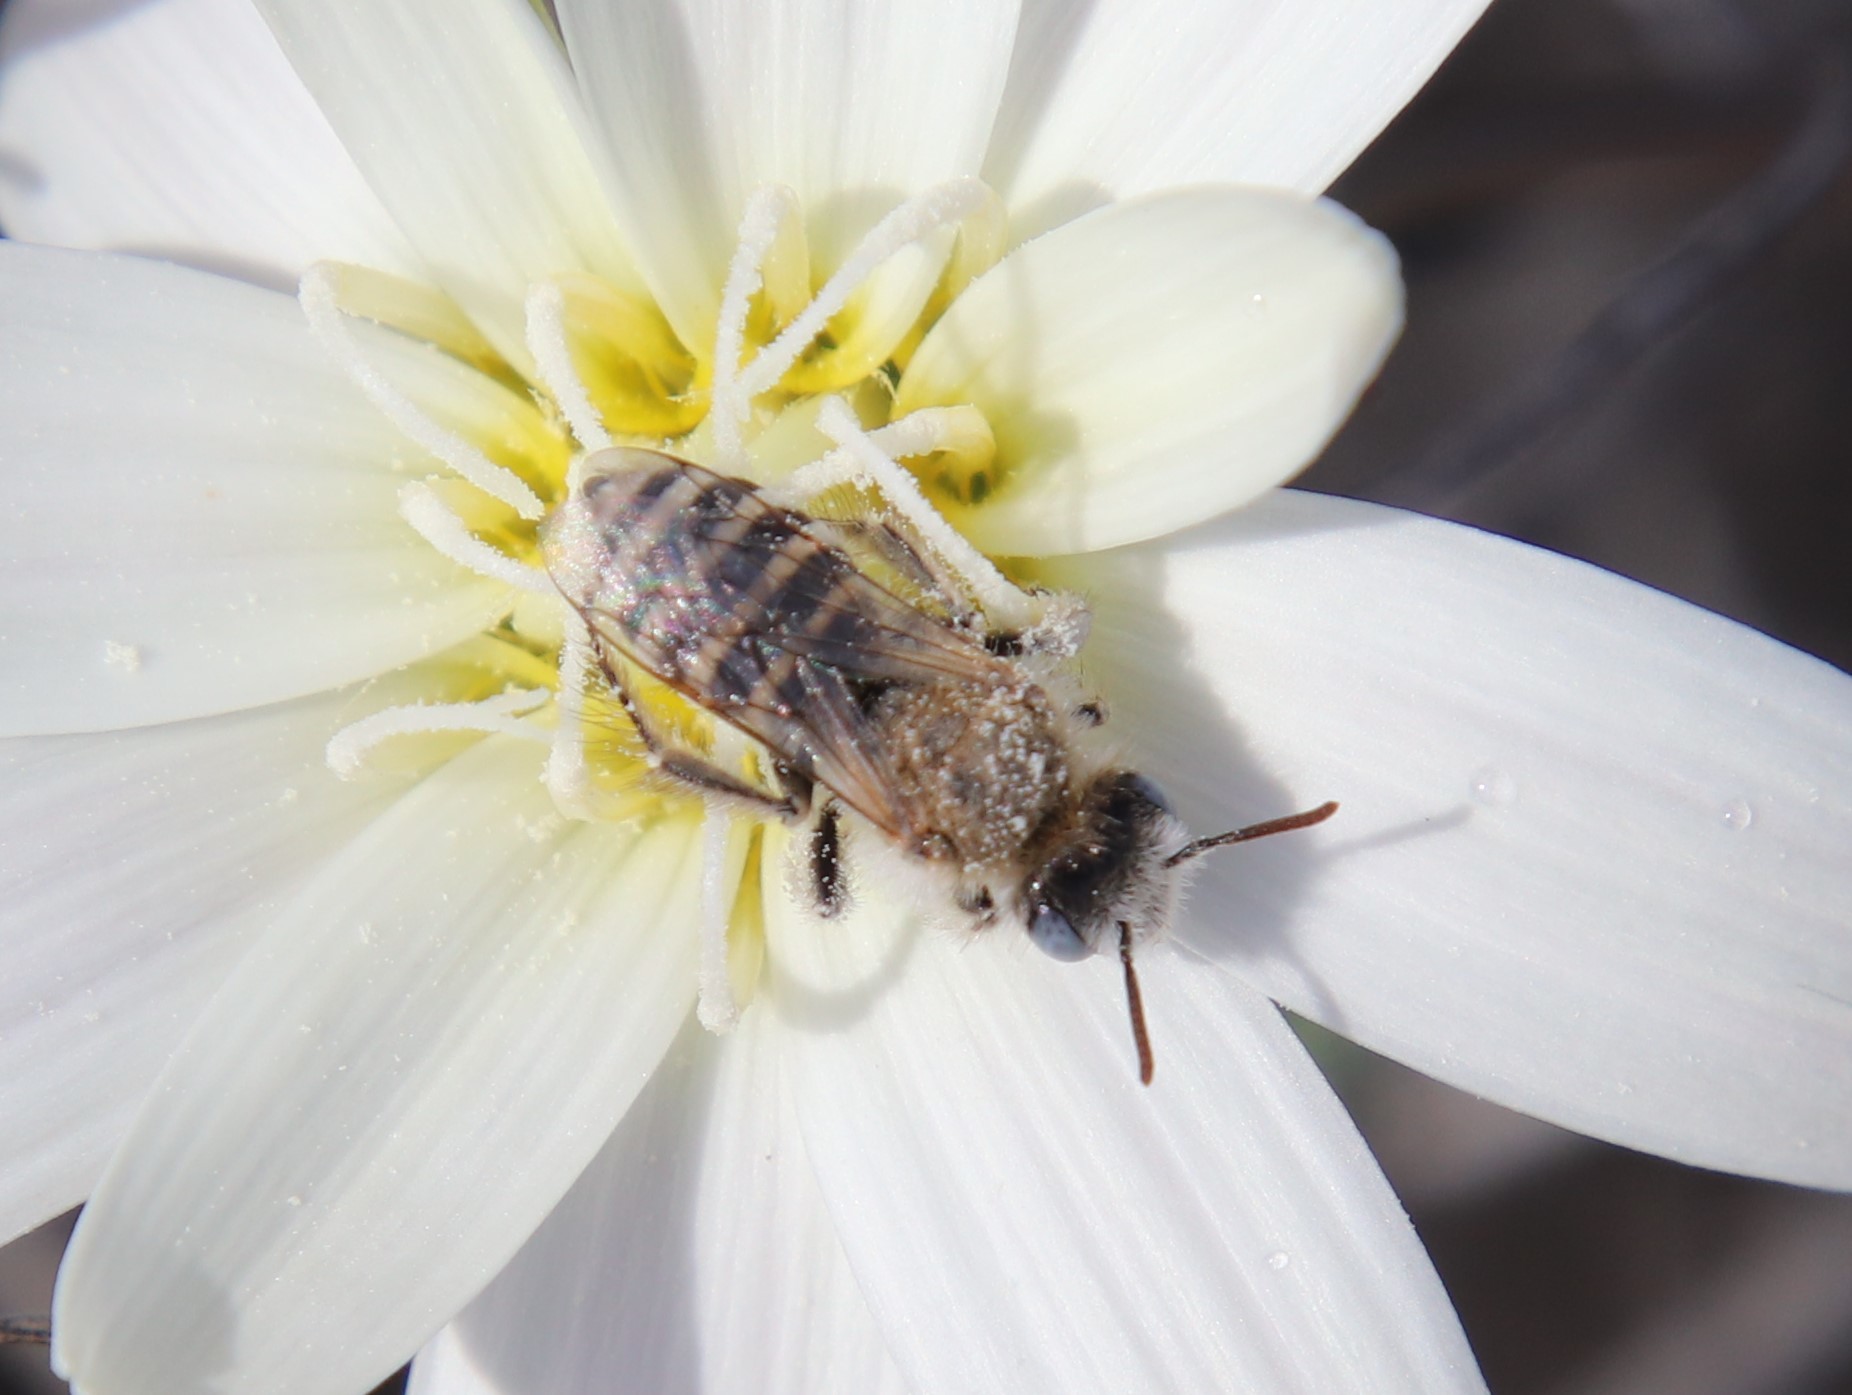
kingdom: Animalia
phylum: Arthropoda
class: Insecta
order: Hymenoptera
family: Melittidae
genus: Hesperapis
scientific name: Hesperapis
